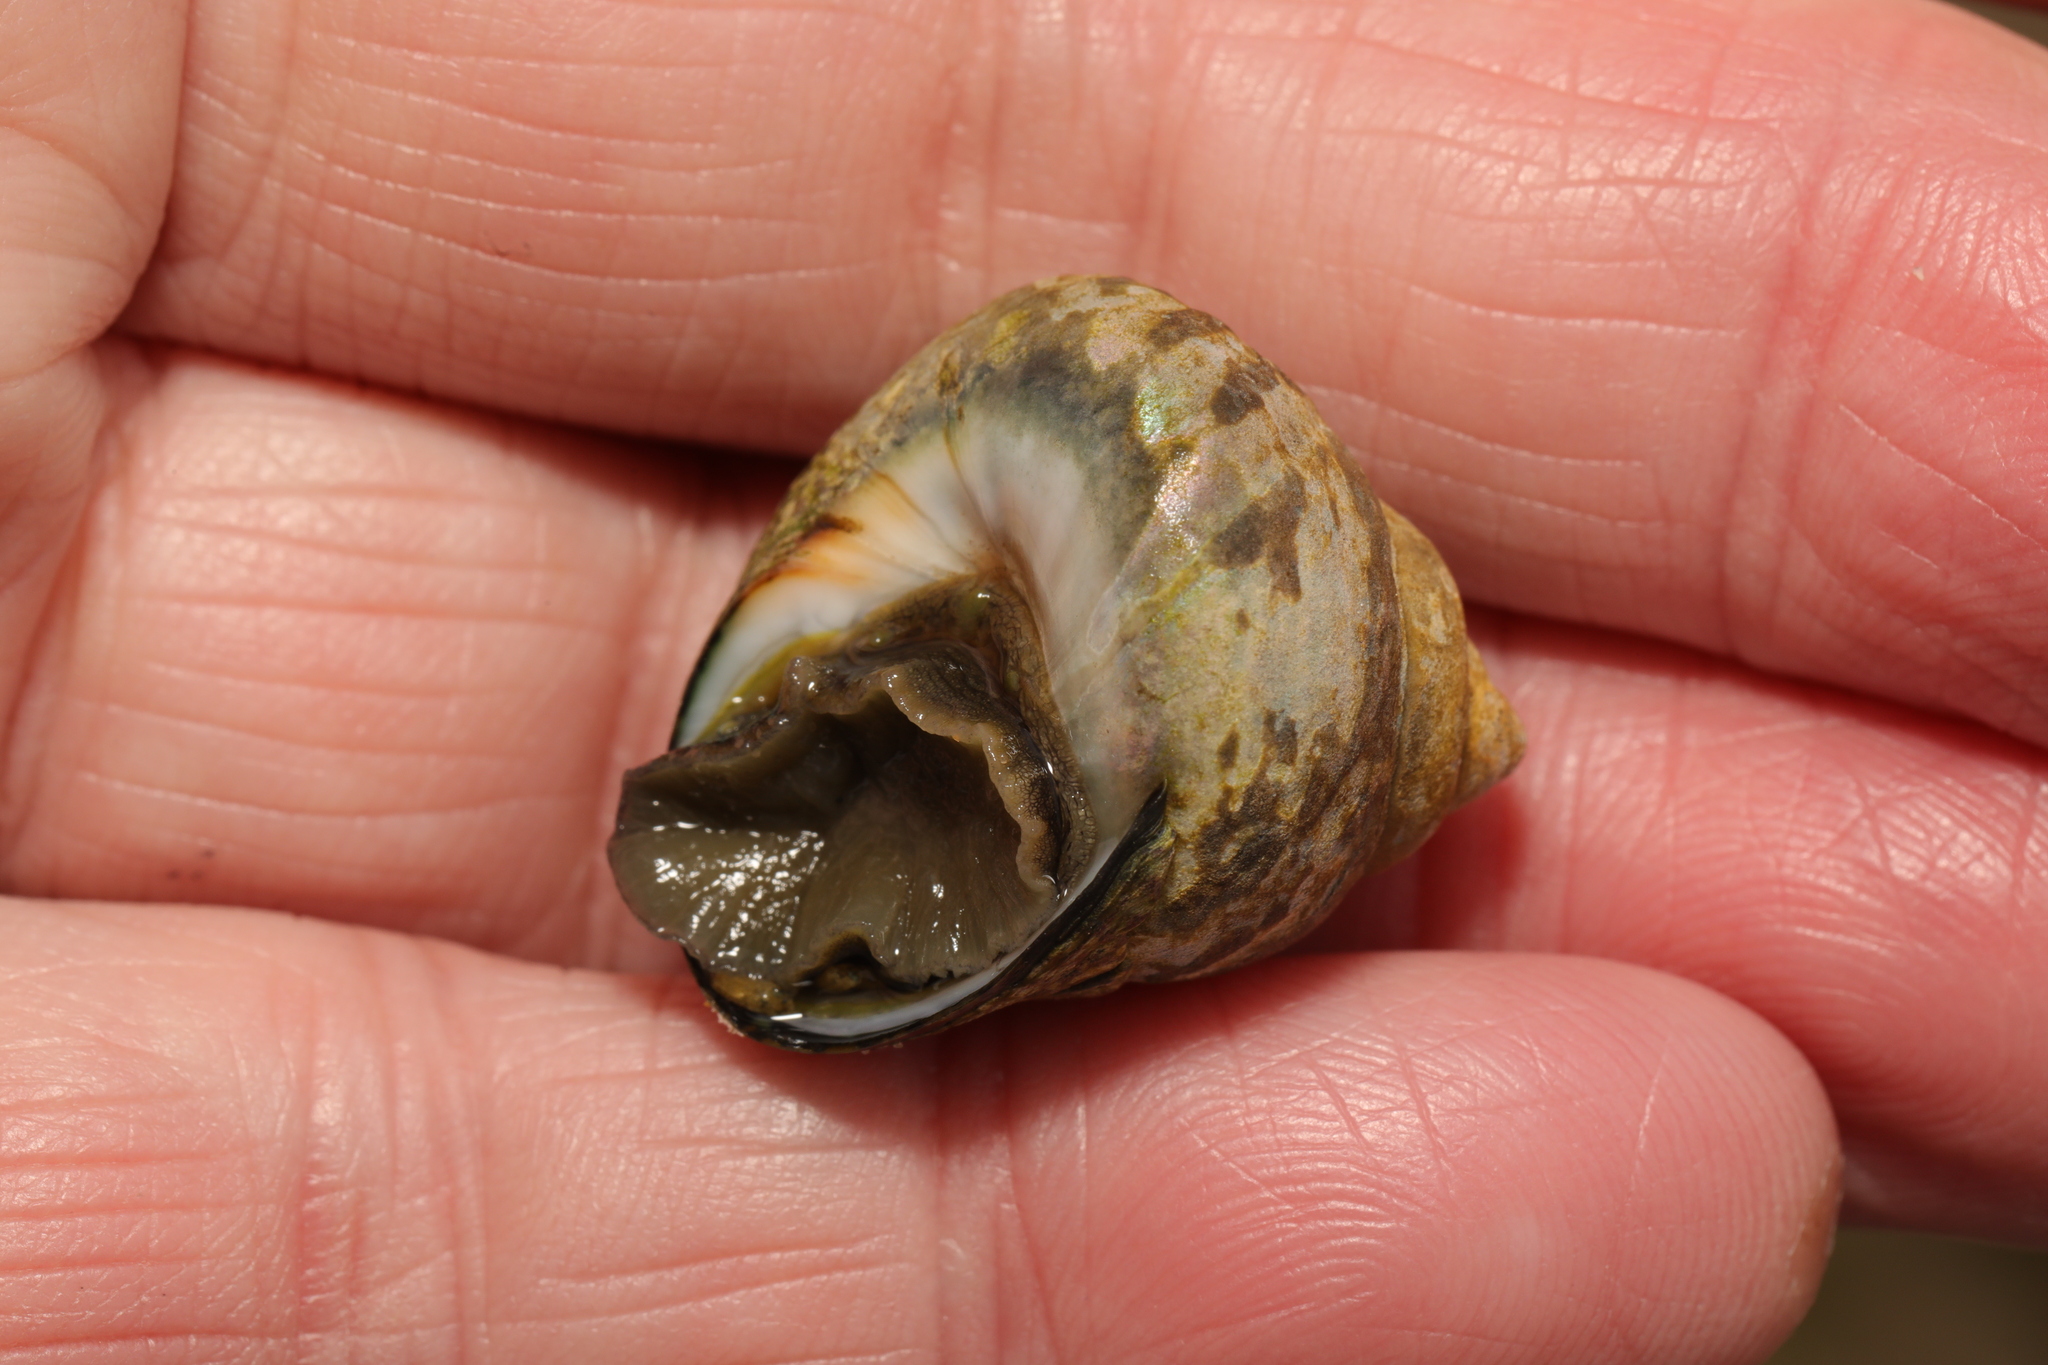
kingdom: Animalia
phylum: Mollusca
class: Gastropoda
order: Trochida
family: Trochidae
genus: Phorcus
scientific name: Phorcus lineatus
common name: Toothed top shell
